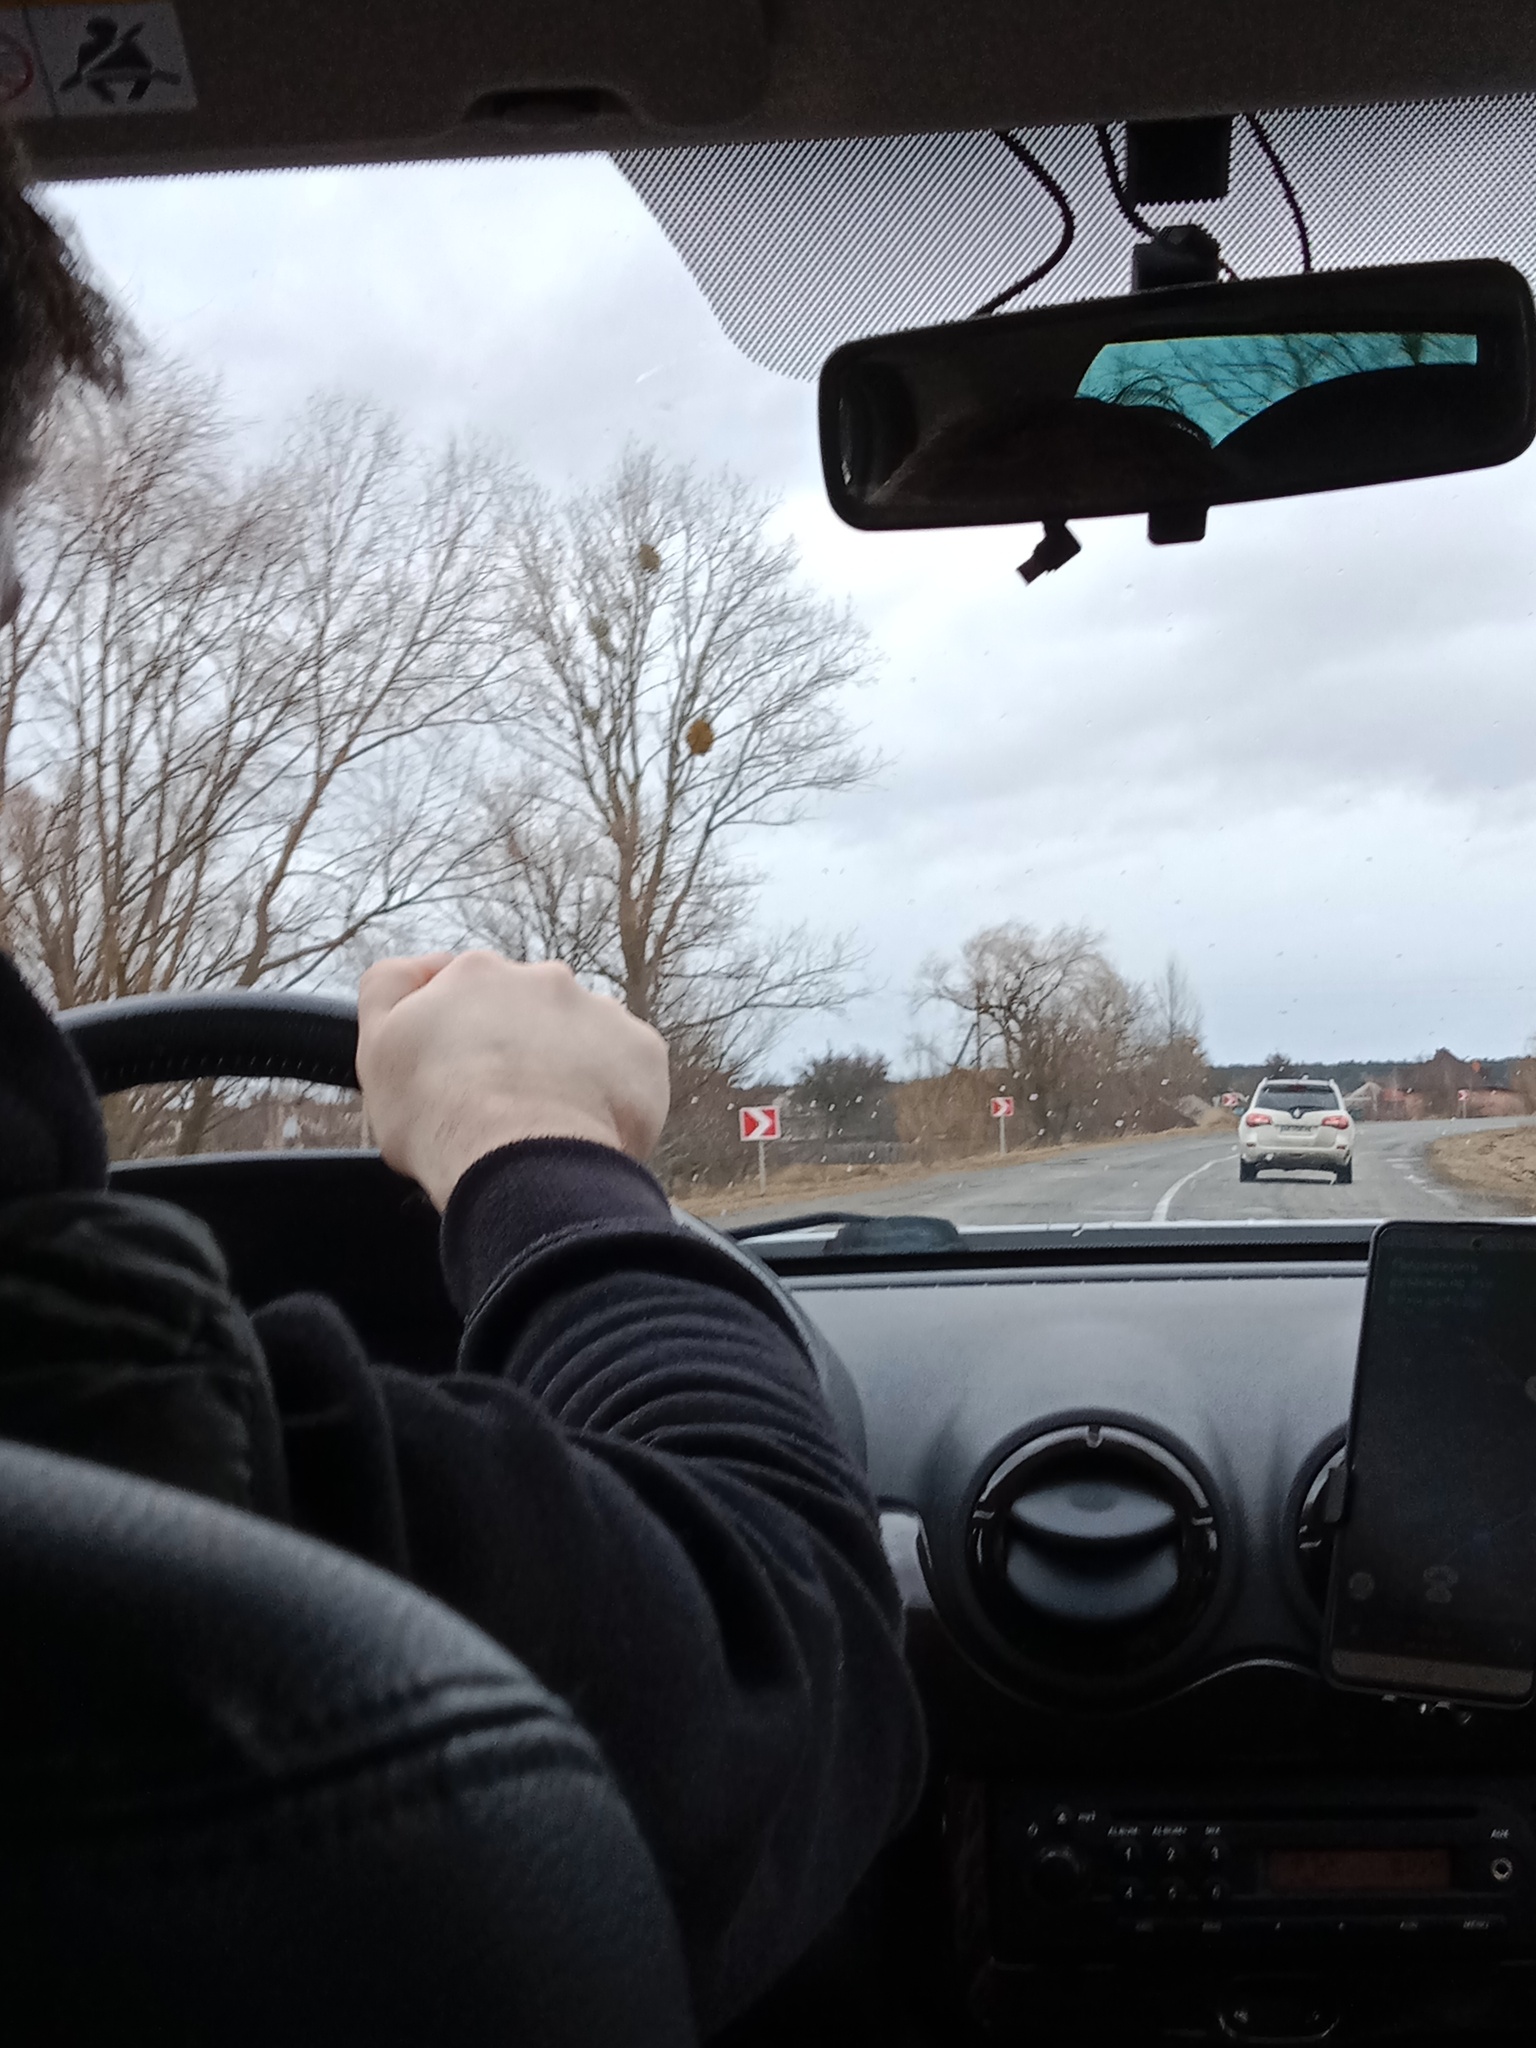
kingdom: Plantae
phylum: Tracheophyta
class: Magnoliopsida
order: Santalales
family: Viscaceae
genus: Viscum
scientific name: Viscum album
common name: Mistletoe
